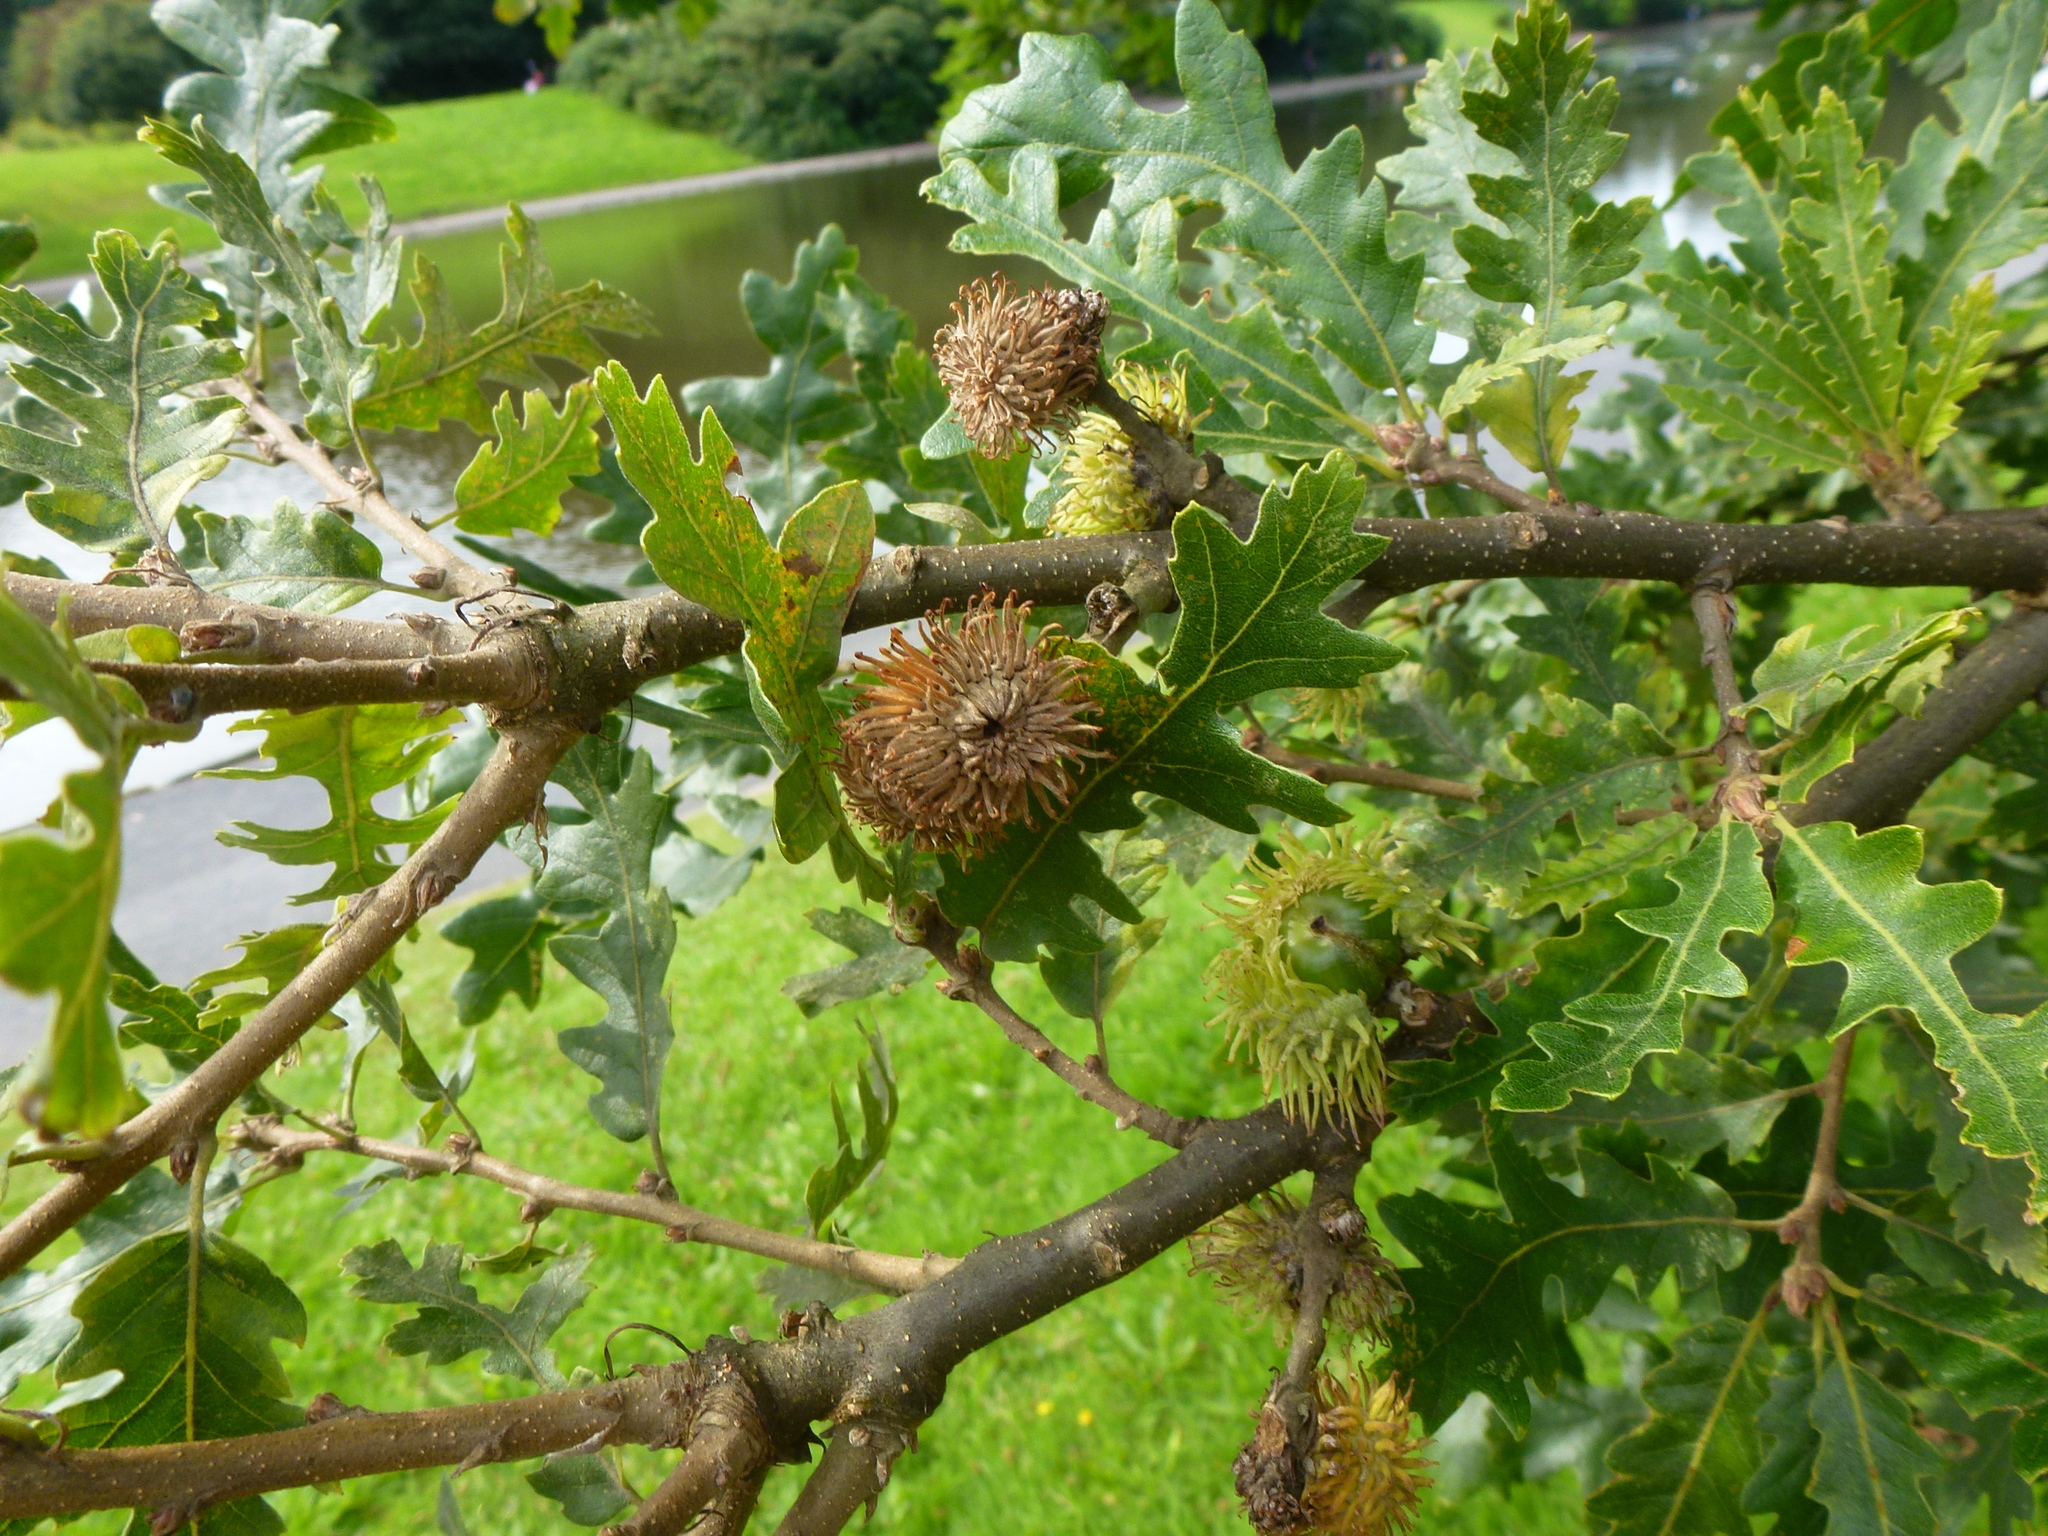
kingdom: Plantae
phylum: Tracheophyta
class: Magnoliopsida
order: Fagales
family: Fagaceae
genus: Quercus
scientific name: Quercus cerris
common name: Turkey oak
